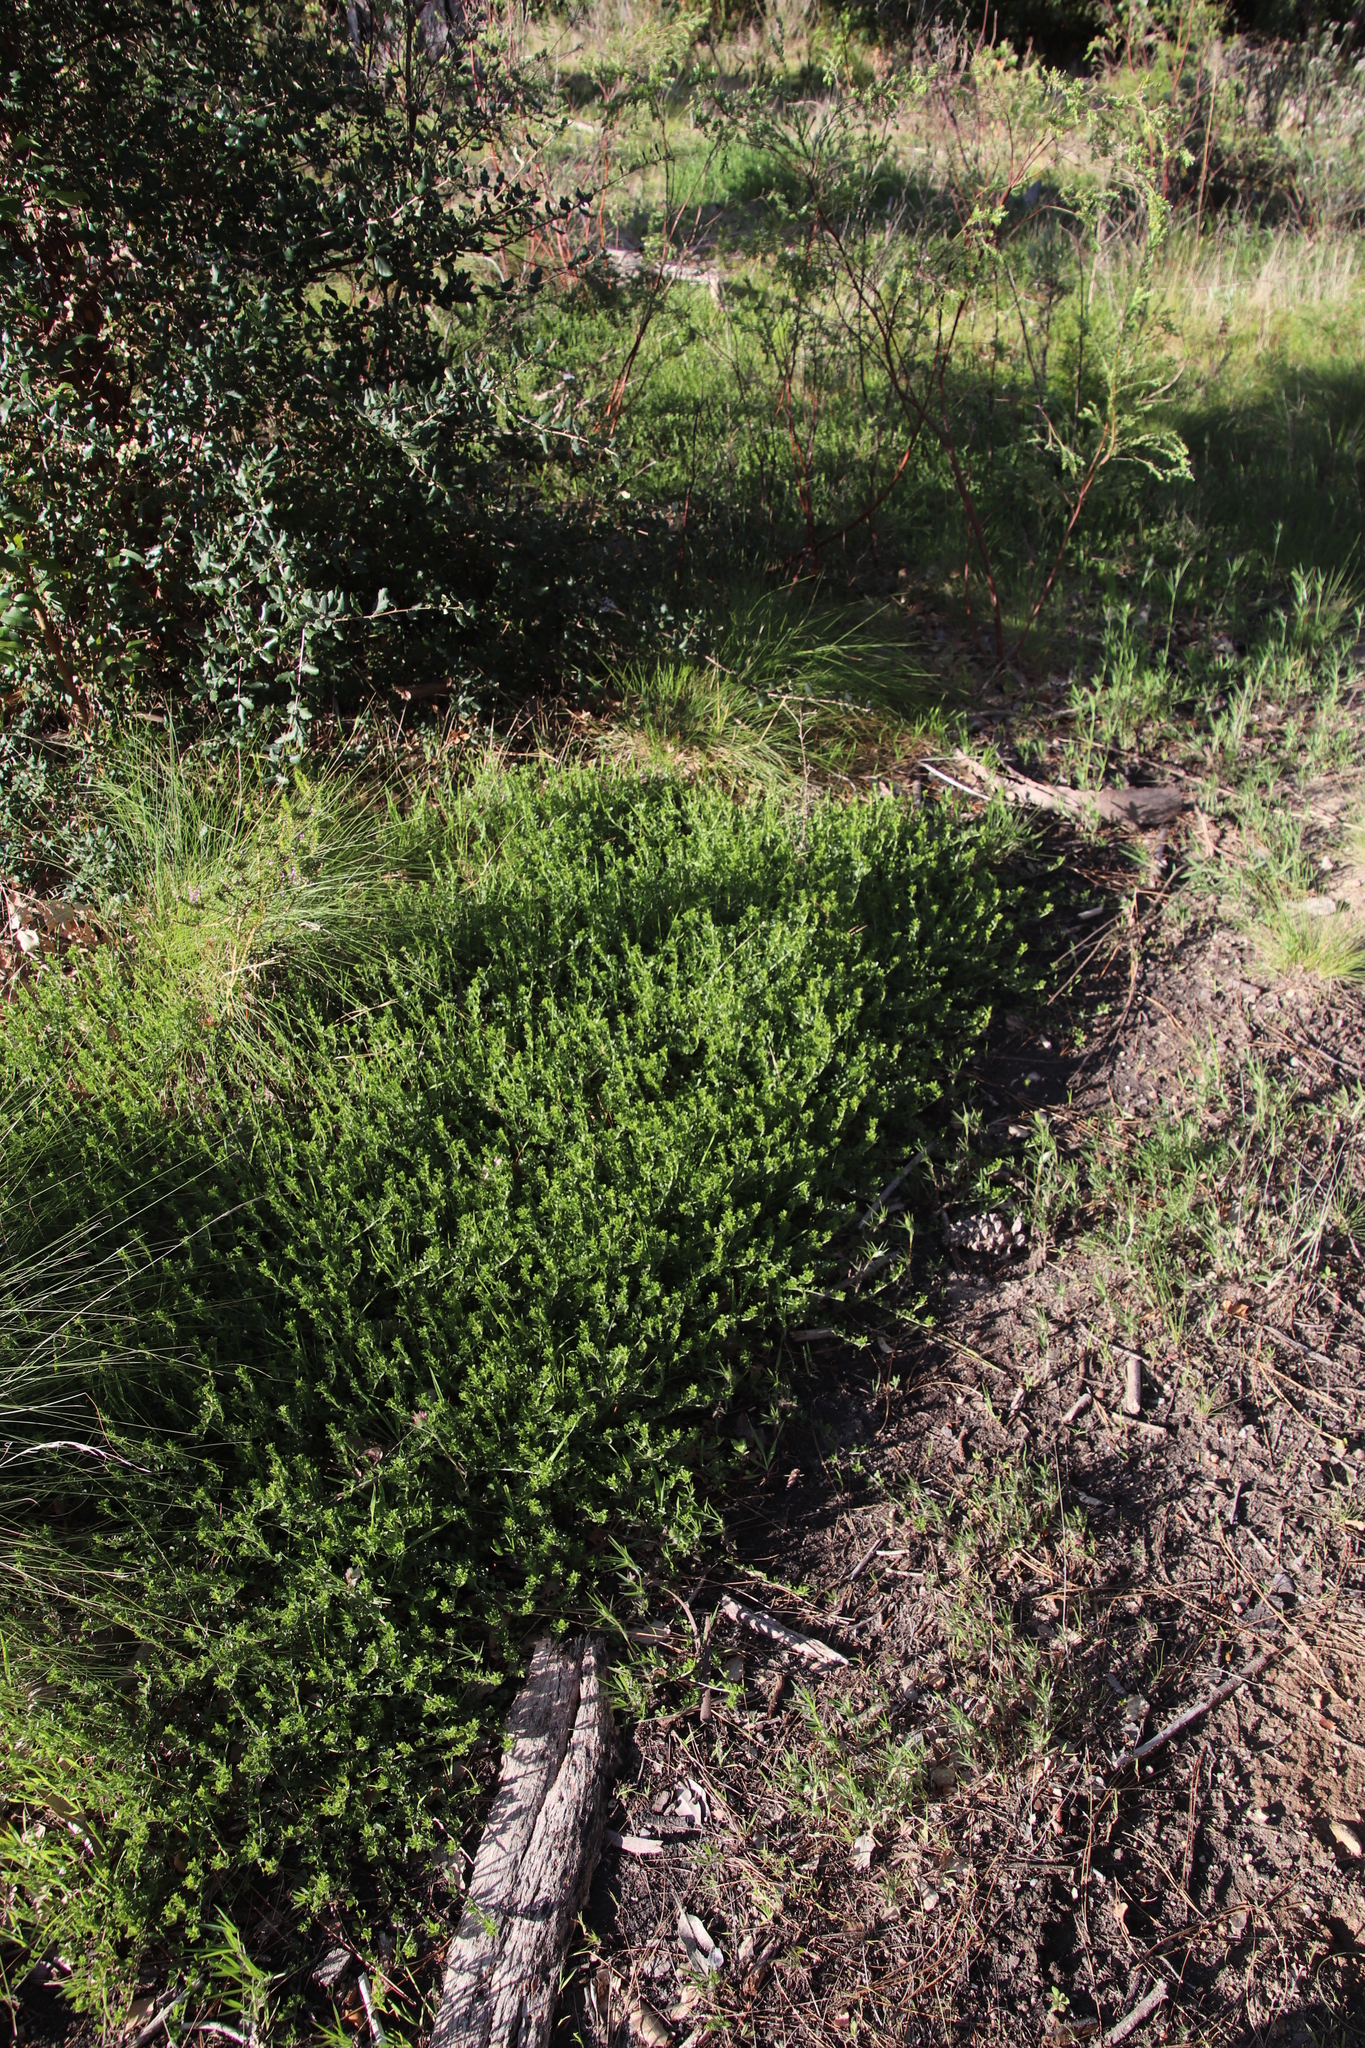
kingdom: Plantae
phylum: Tracheophyta
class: Magnoliopsida
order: Fabales
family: Fabaceae
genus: Psoralea
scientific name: Psoralea
